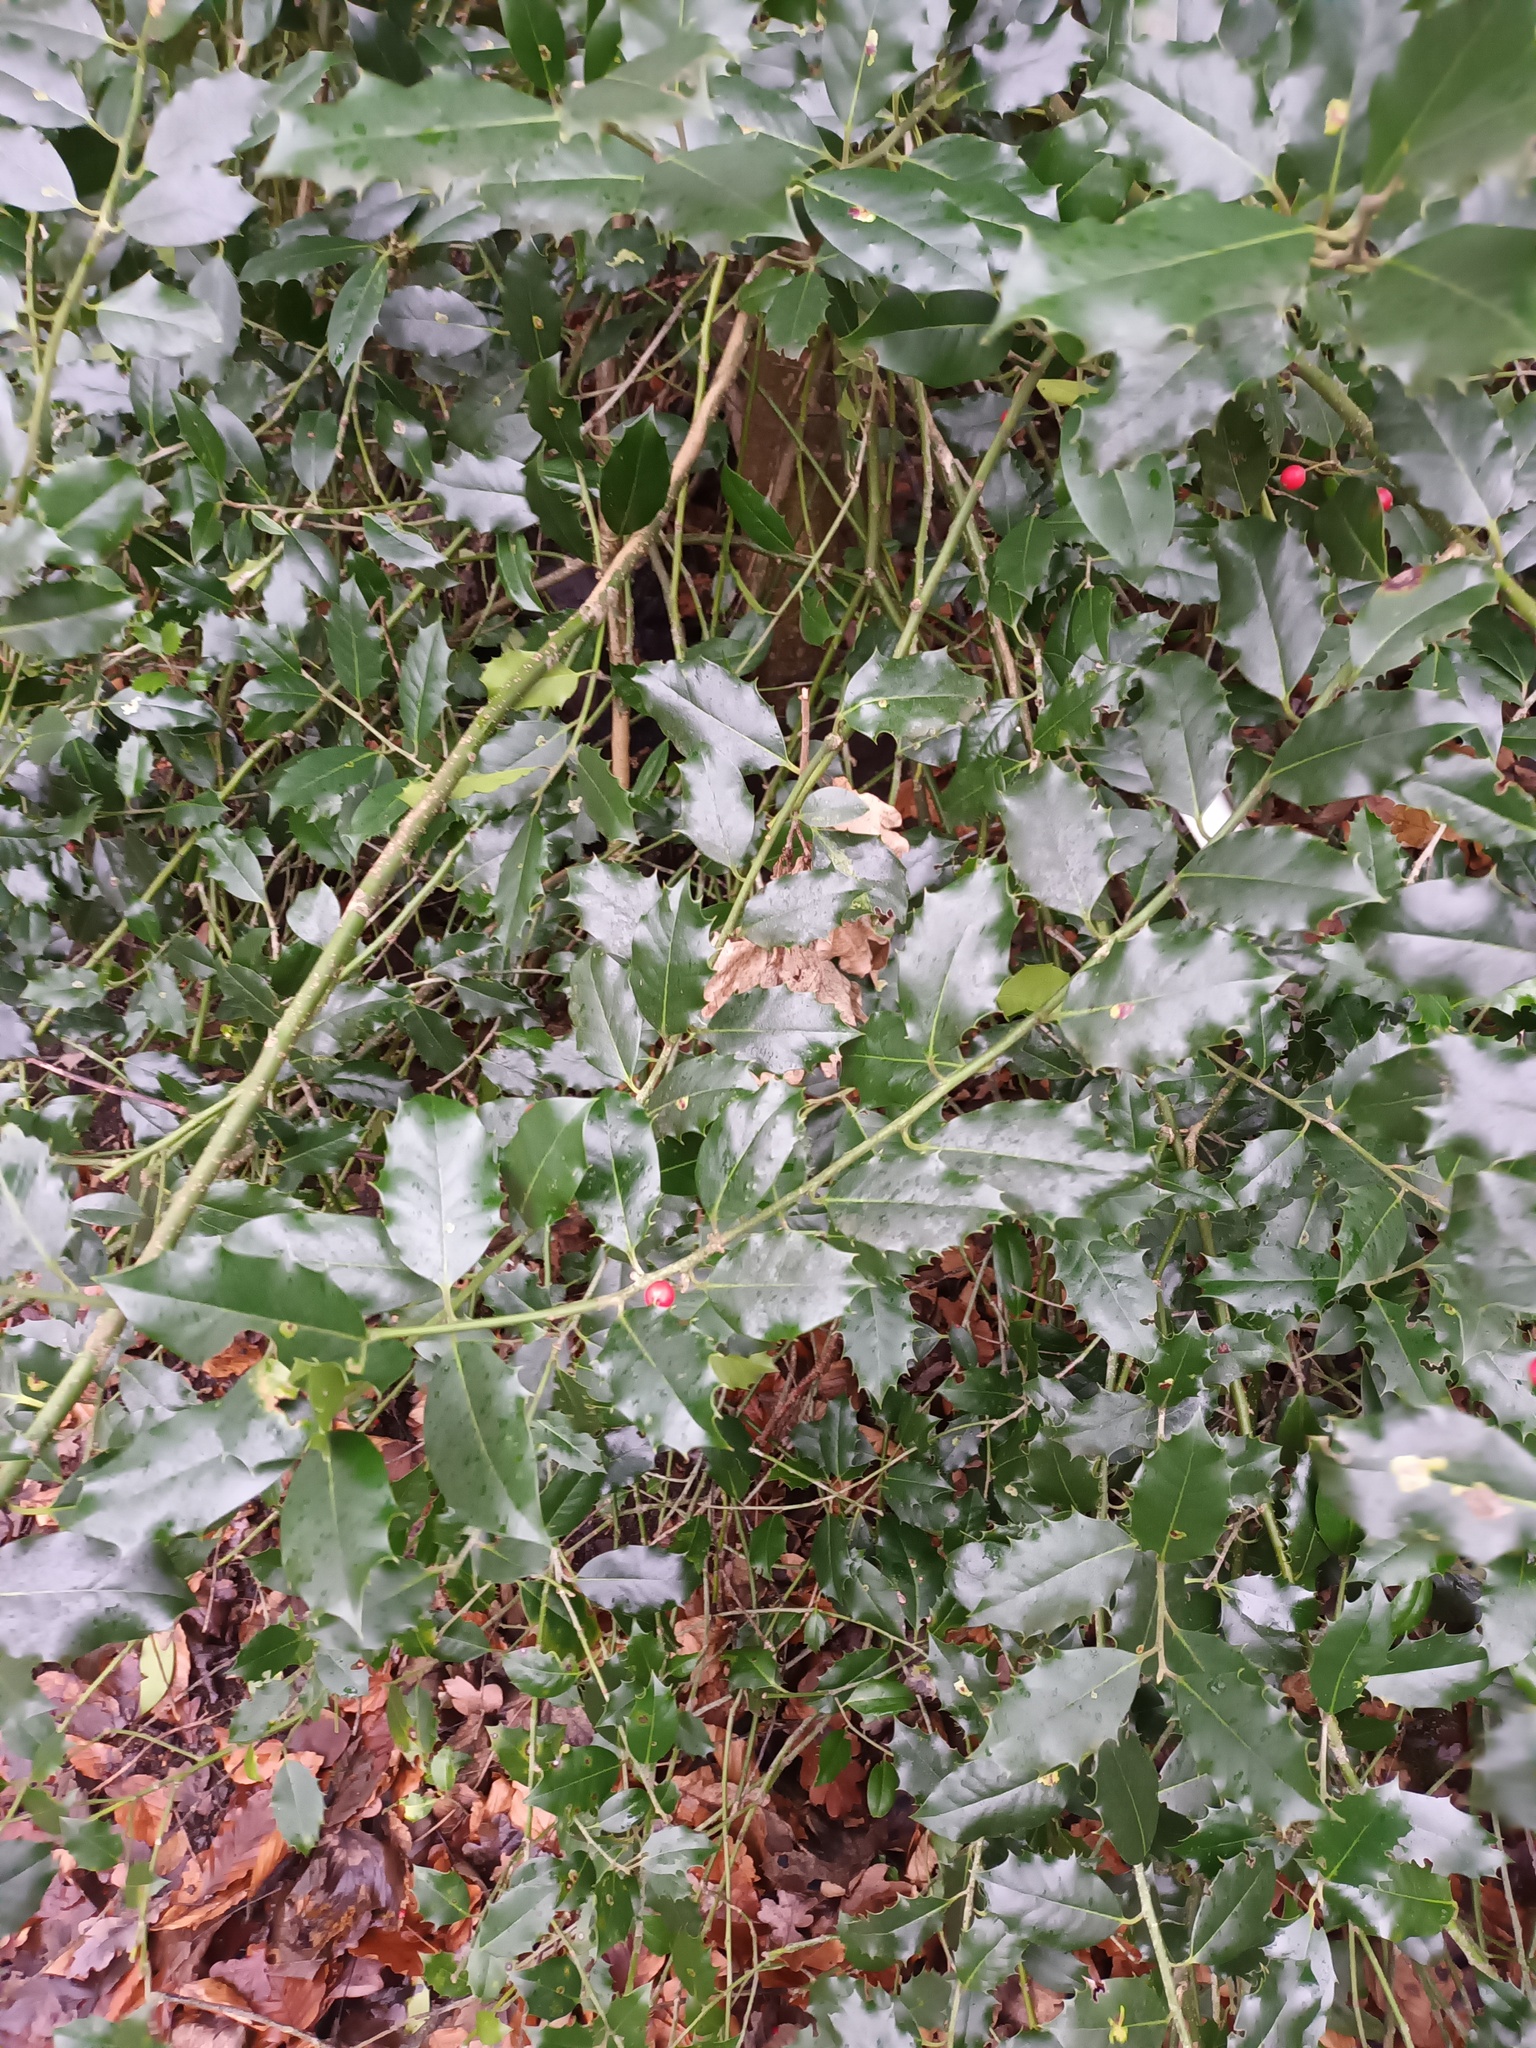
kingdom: Plantae
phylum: Tracheophyta
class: Magnoliopsida
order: Aquifoliales
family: Aquifoliaceae
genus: Ilex
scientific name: Ilex aquifolium
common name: English holly
